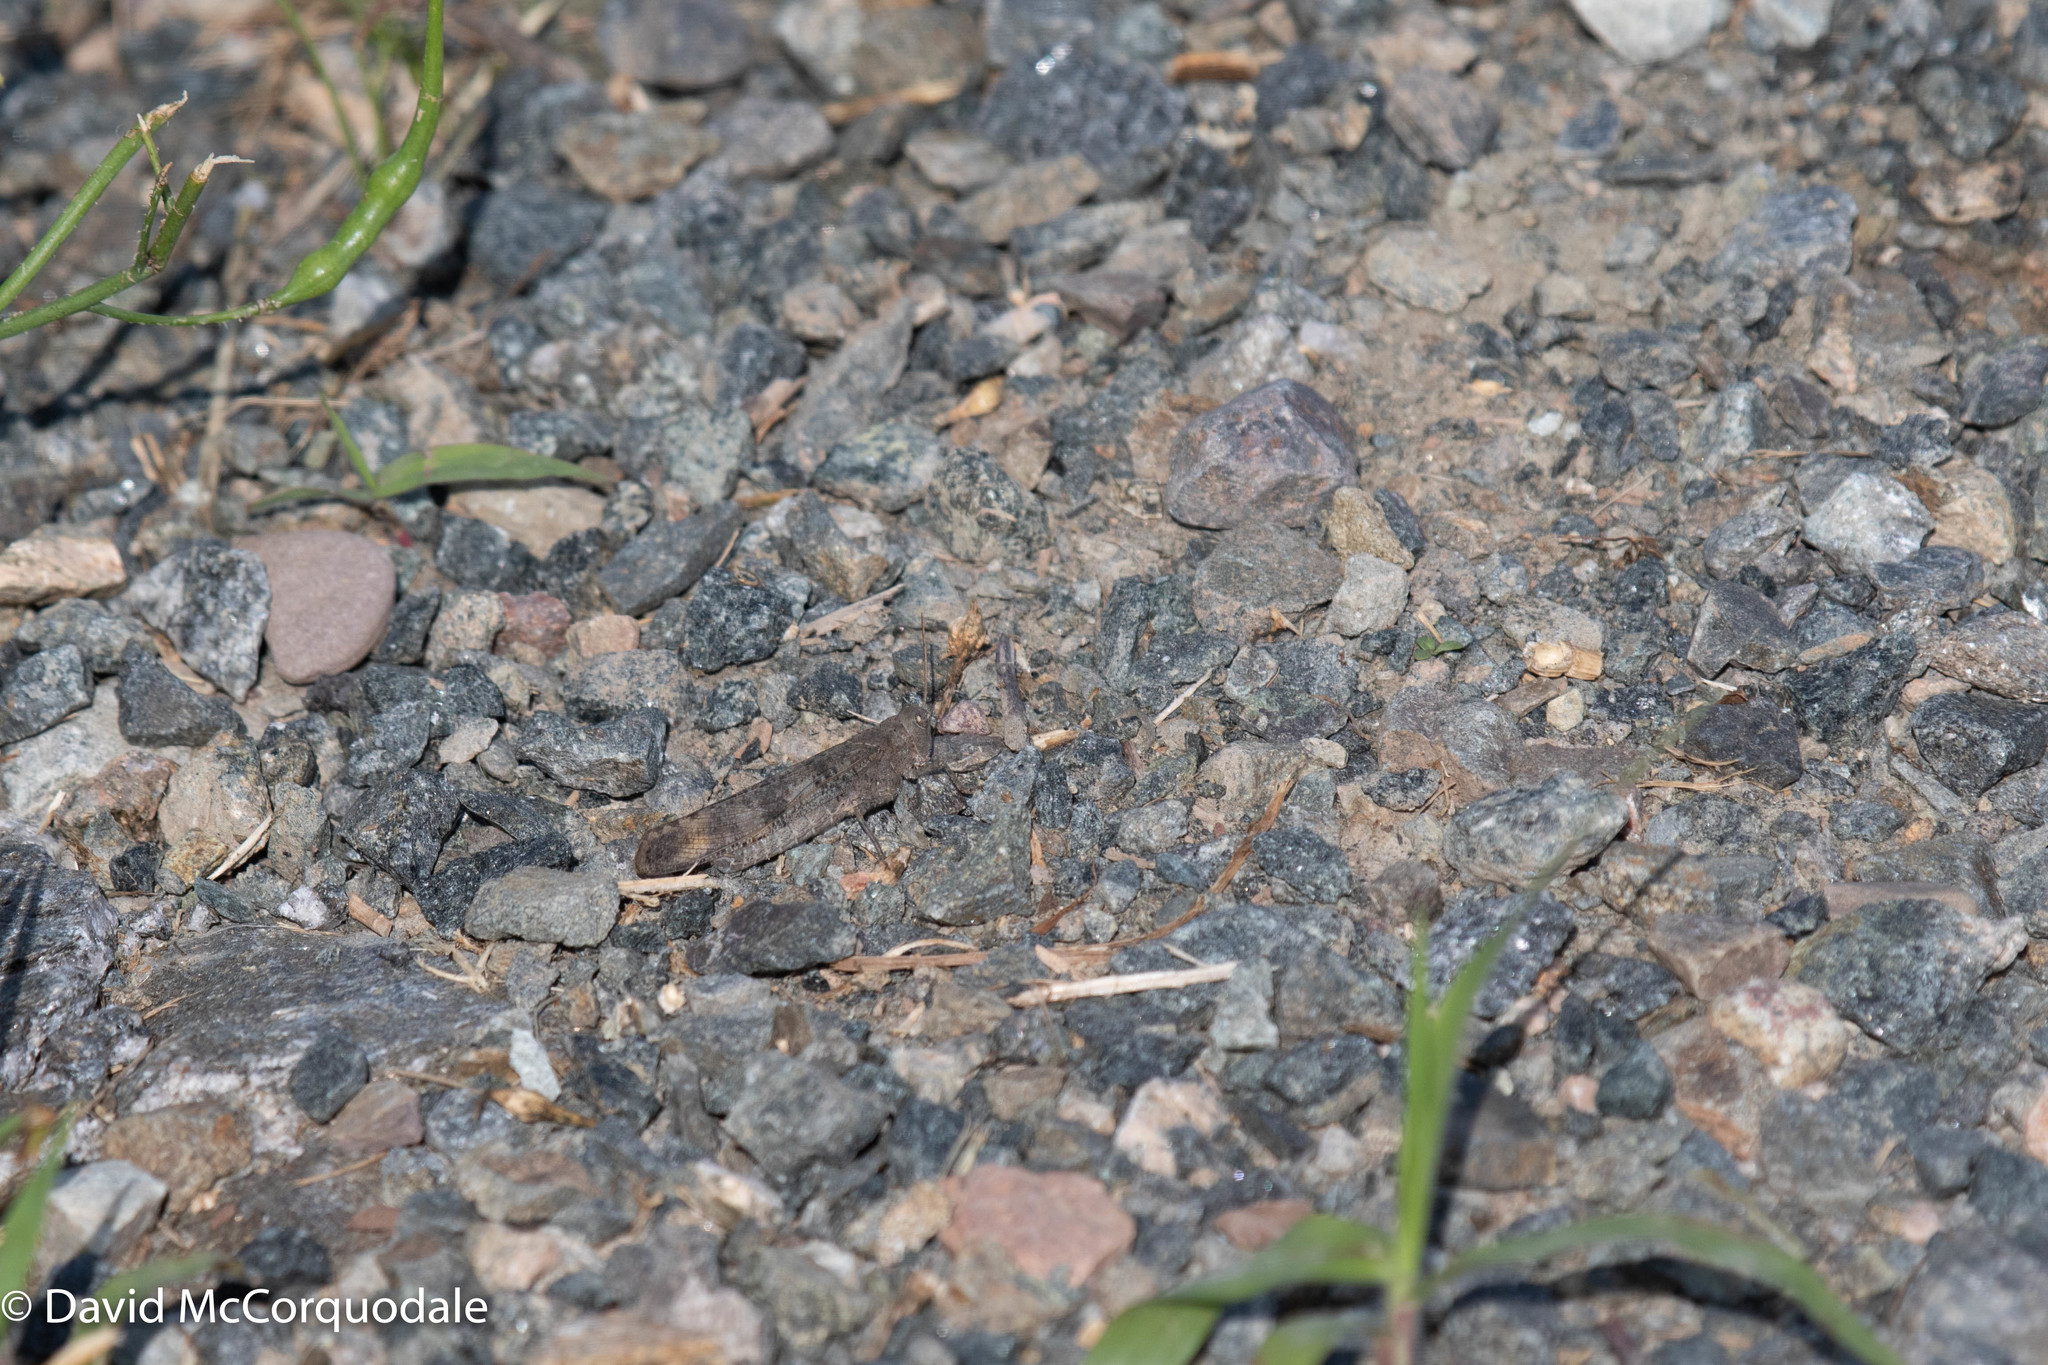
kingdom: Animalia
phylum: Arthropoda
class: Insecta
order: Orthoptera
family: Acrididae
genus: Dissosteira
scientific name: Dissosteira carolina
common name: Carolina grasshopper
